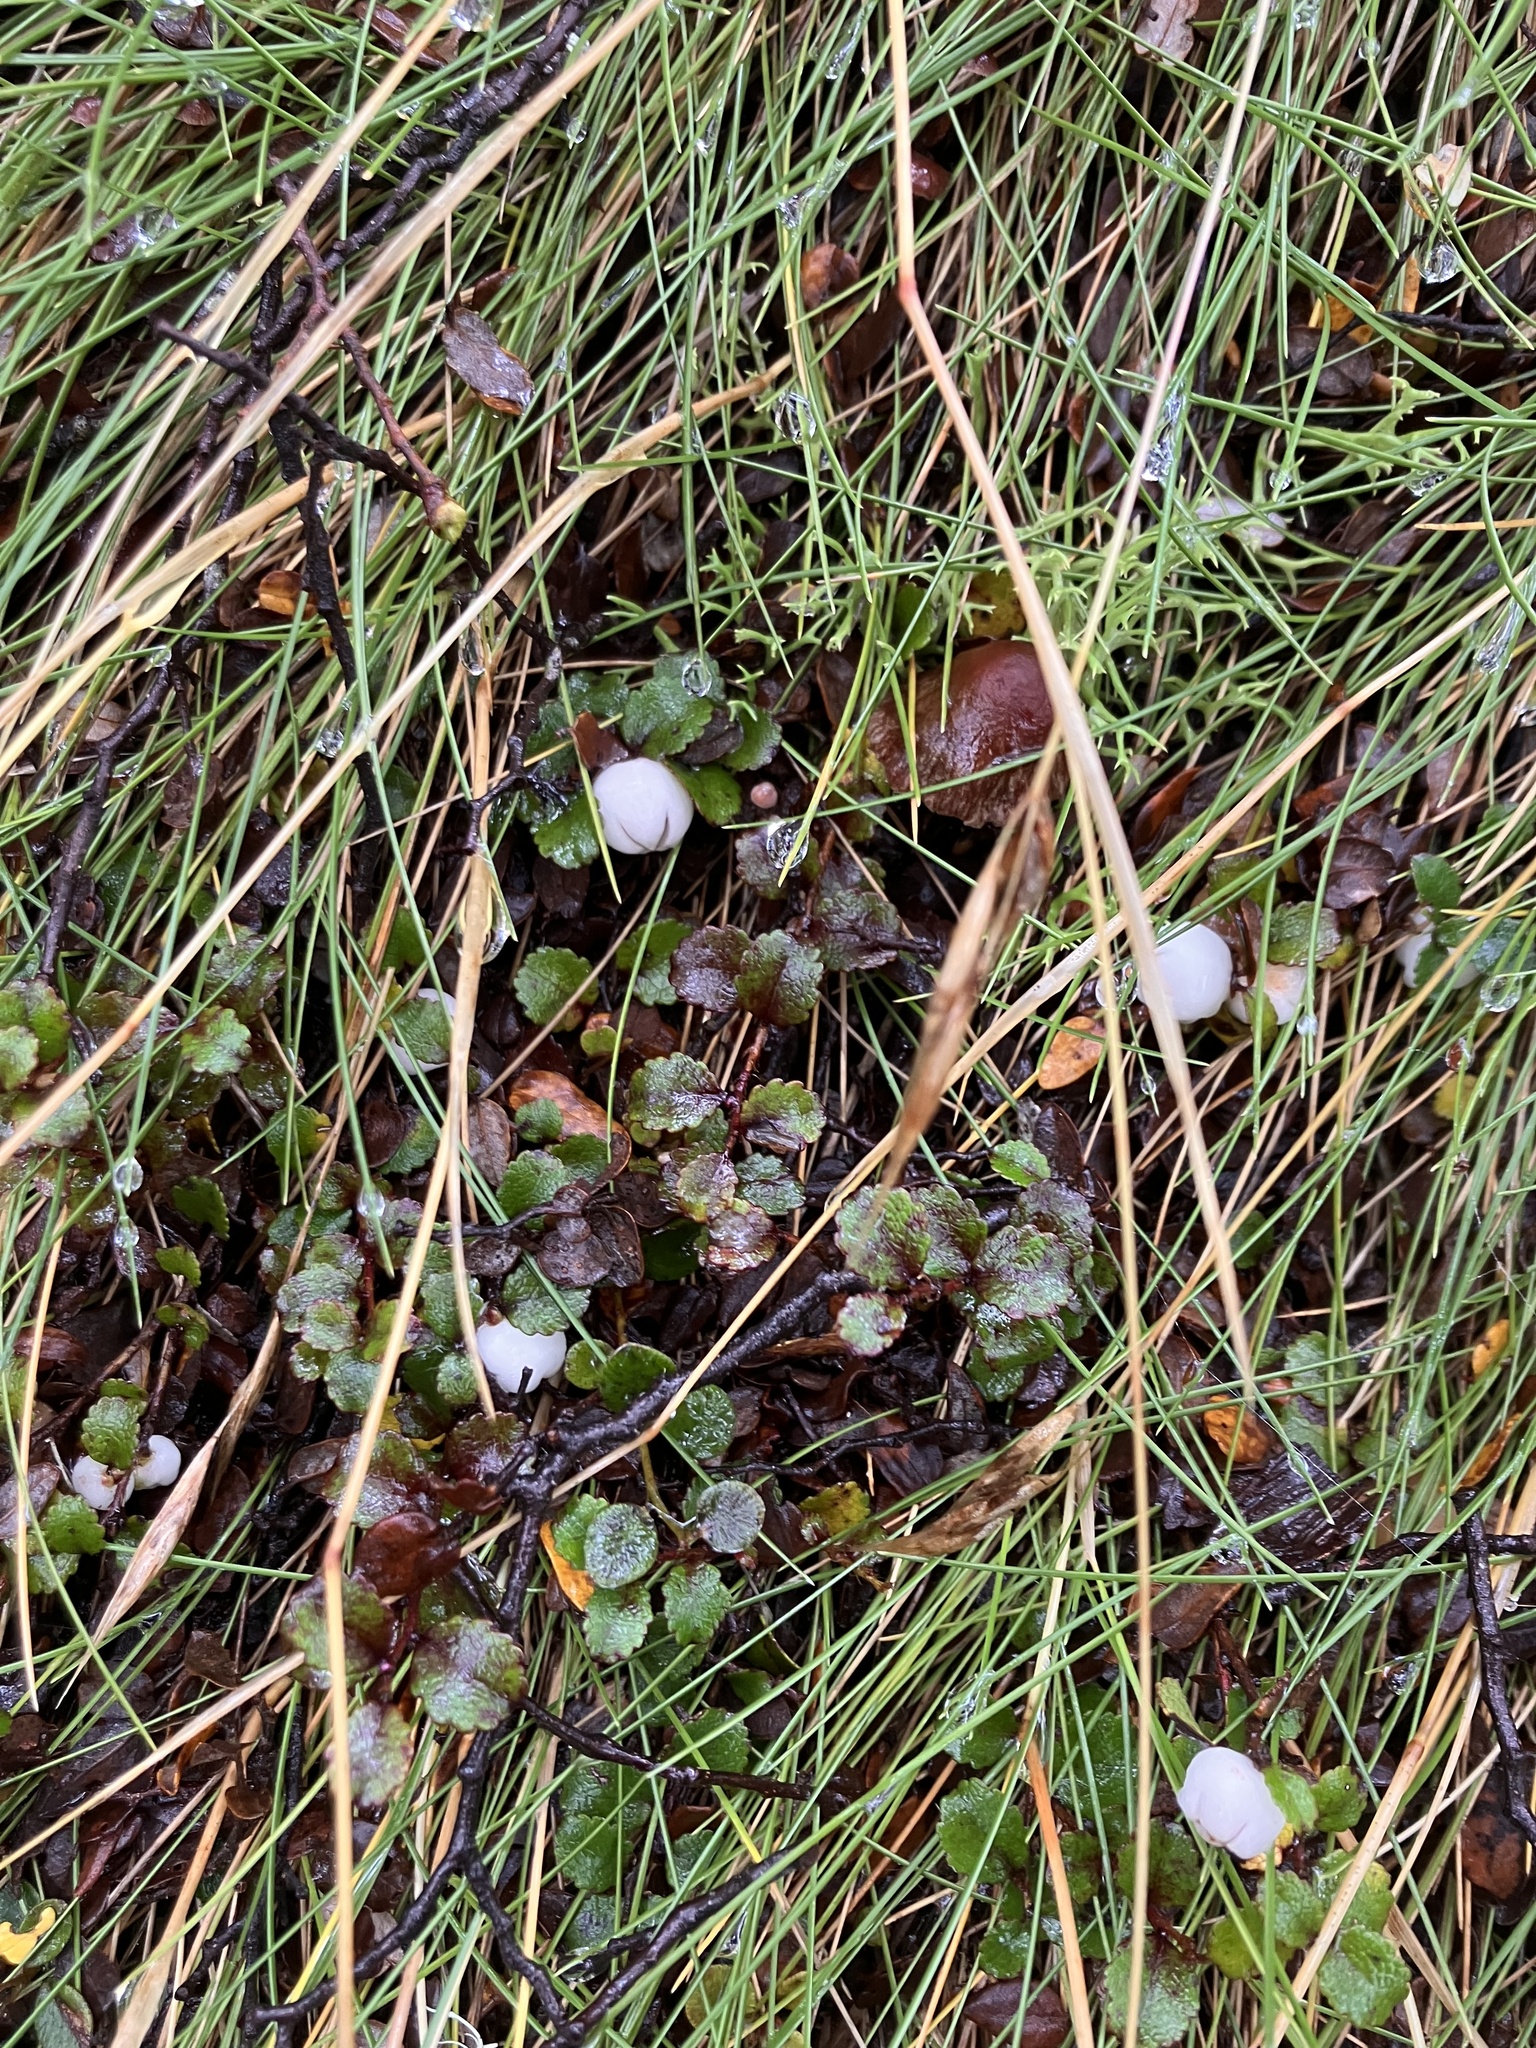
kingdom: Plantae
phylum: Tracheophyta
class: Magnoliopsida
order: Ericales
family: Ericaceae
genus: Gaultheria
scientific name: Gaultheria depressa
